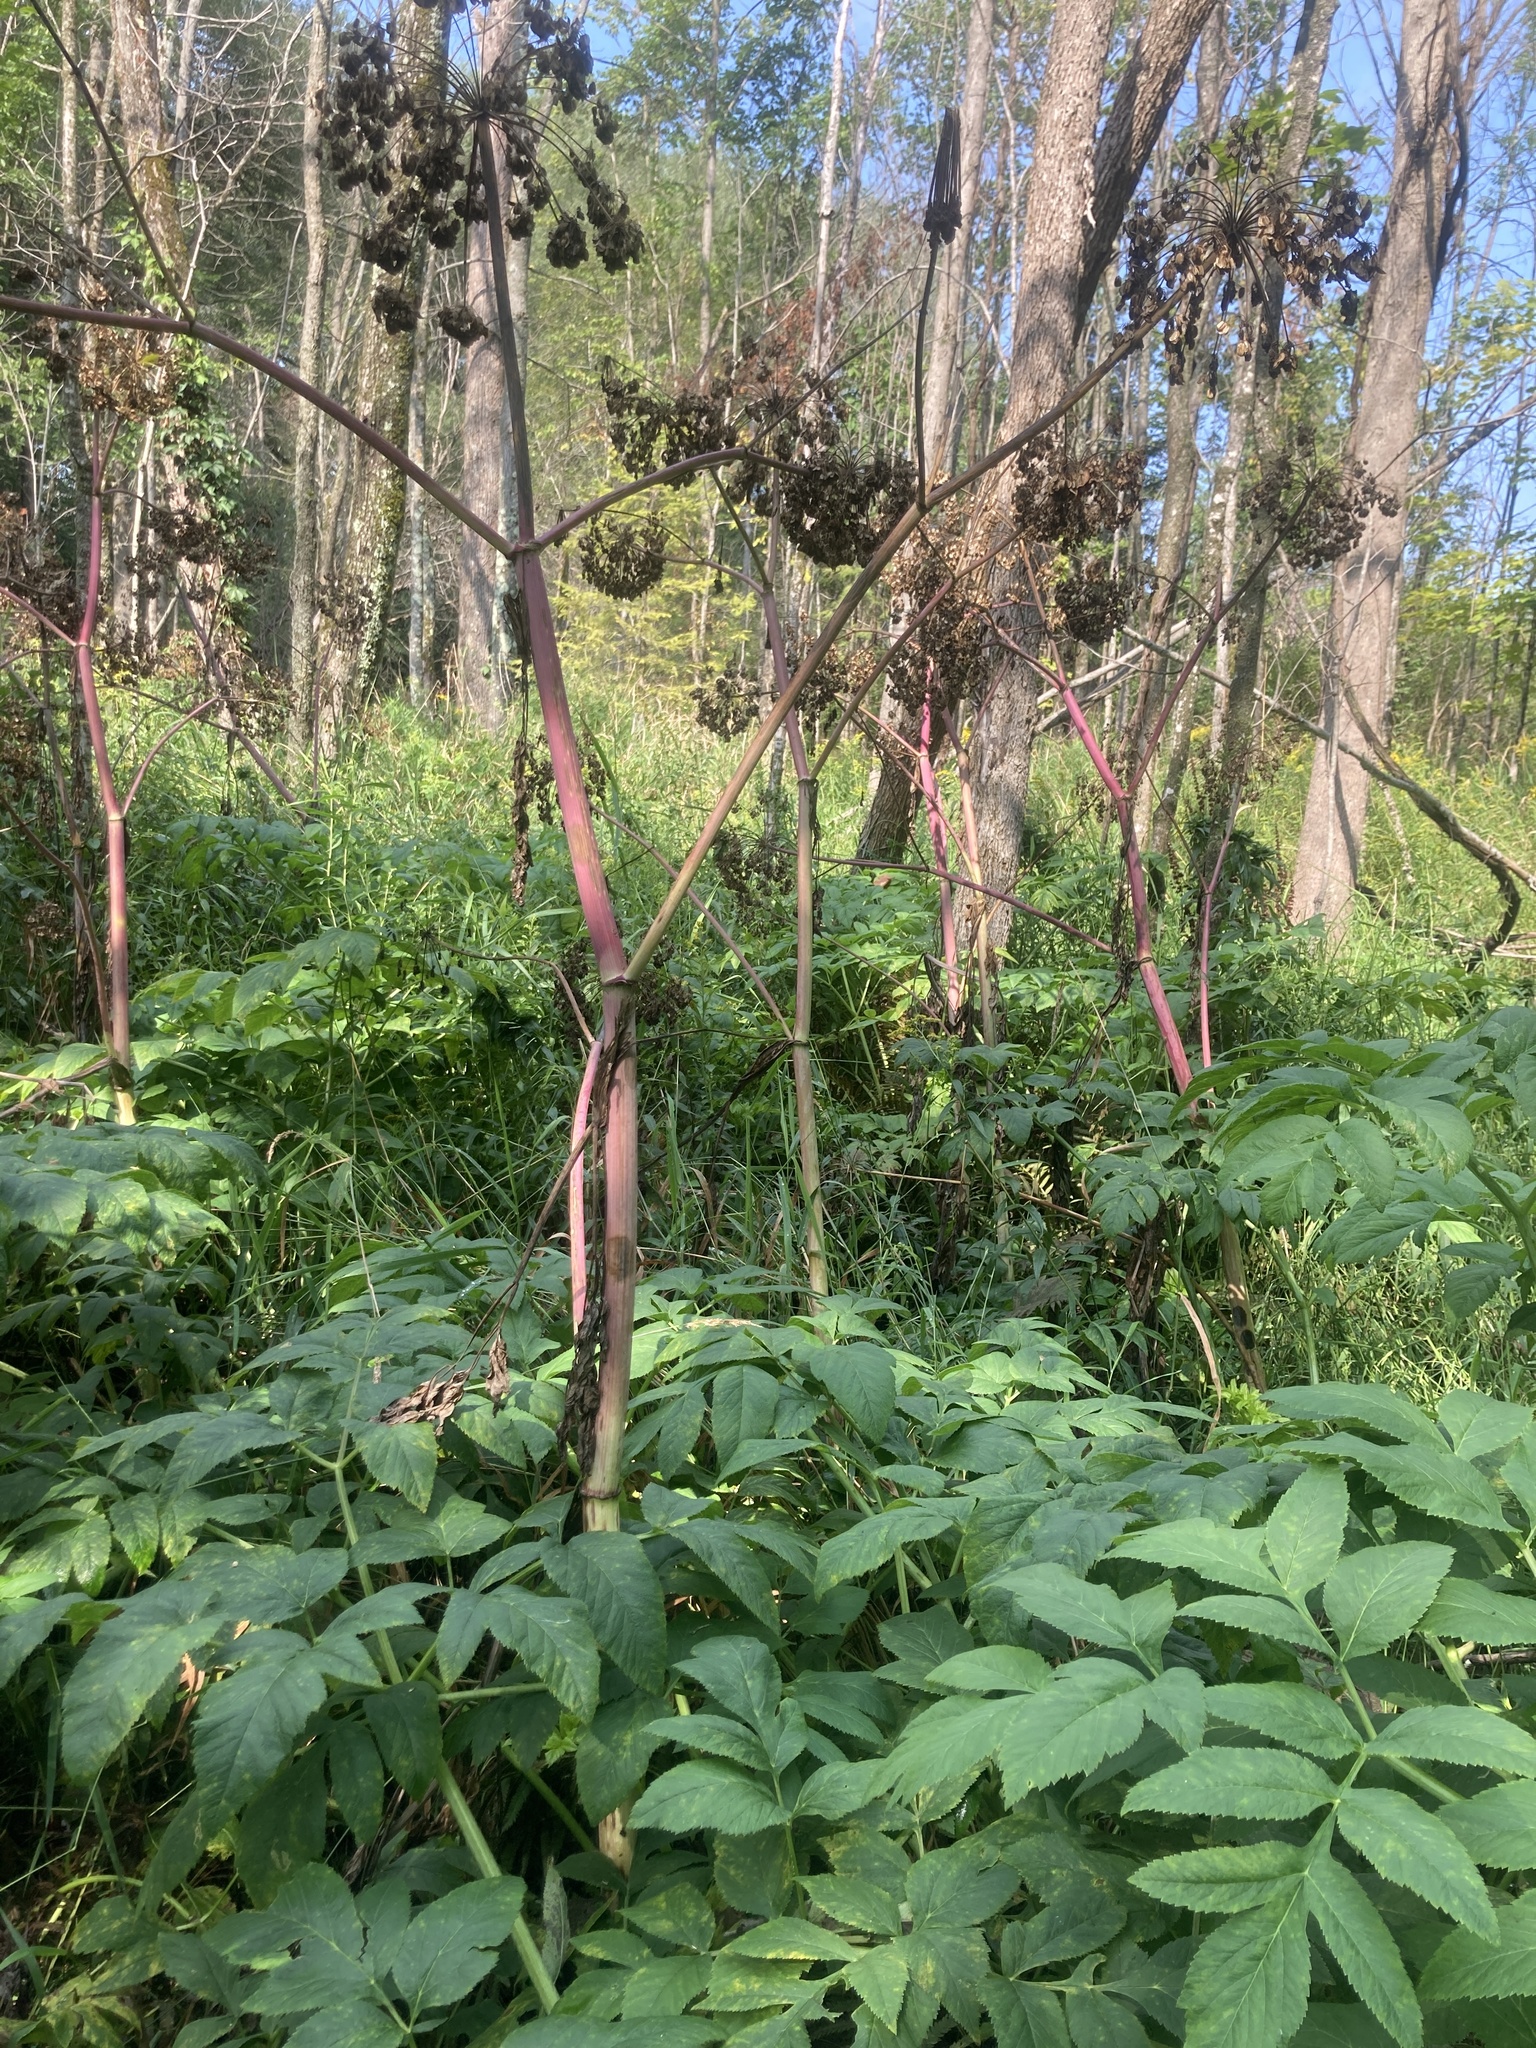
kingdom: Plantae
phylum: Tracheophyta
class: Magnoliopsida
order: Apiales
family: Apiaceae
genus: Angelica
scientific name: Angelica atropurpurea
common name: Great angelica
